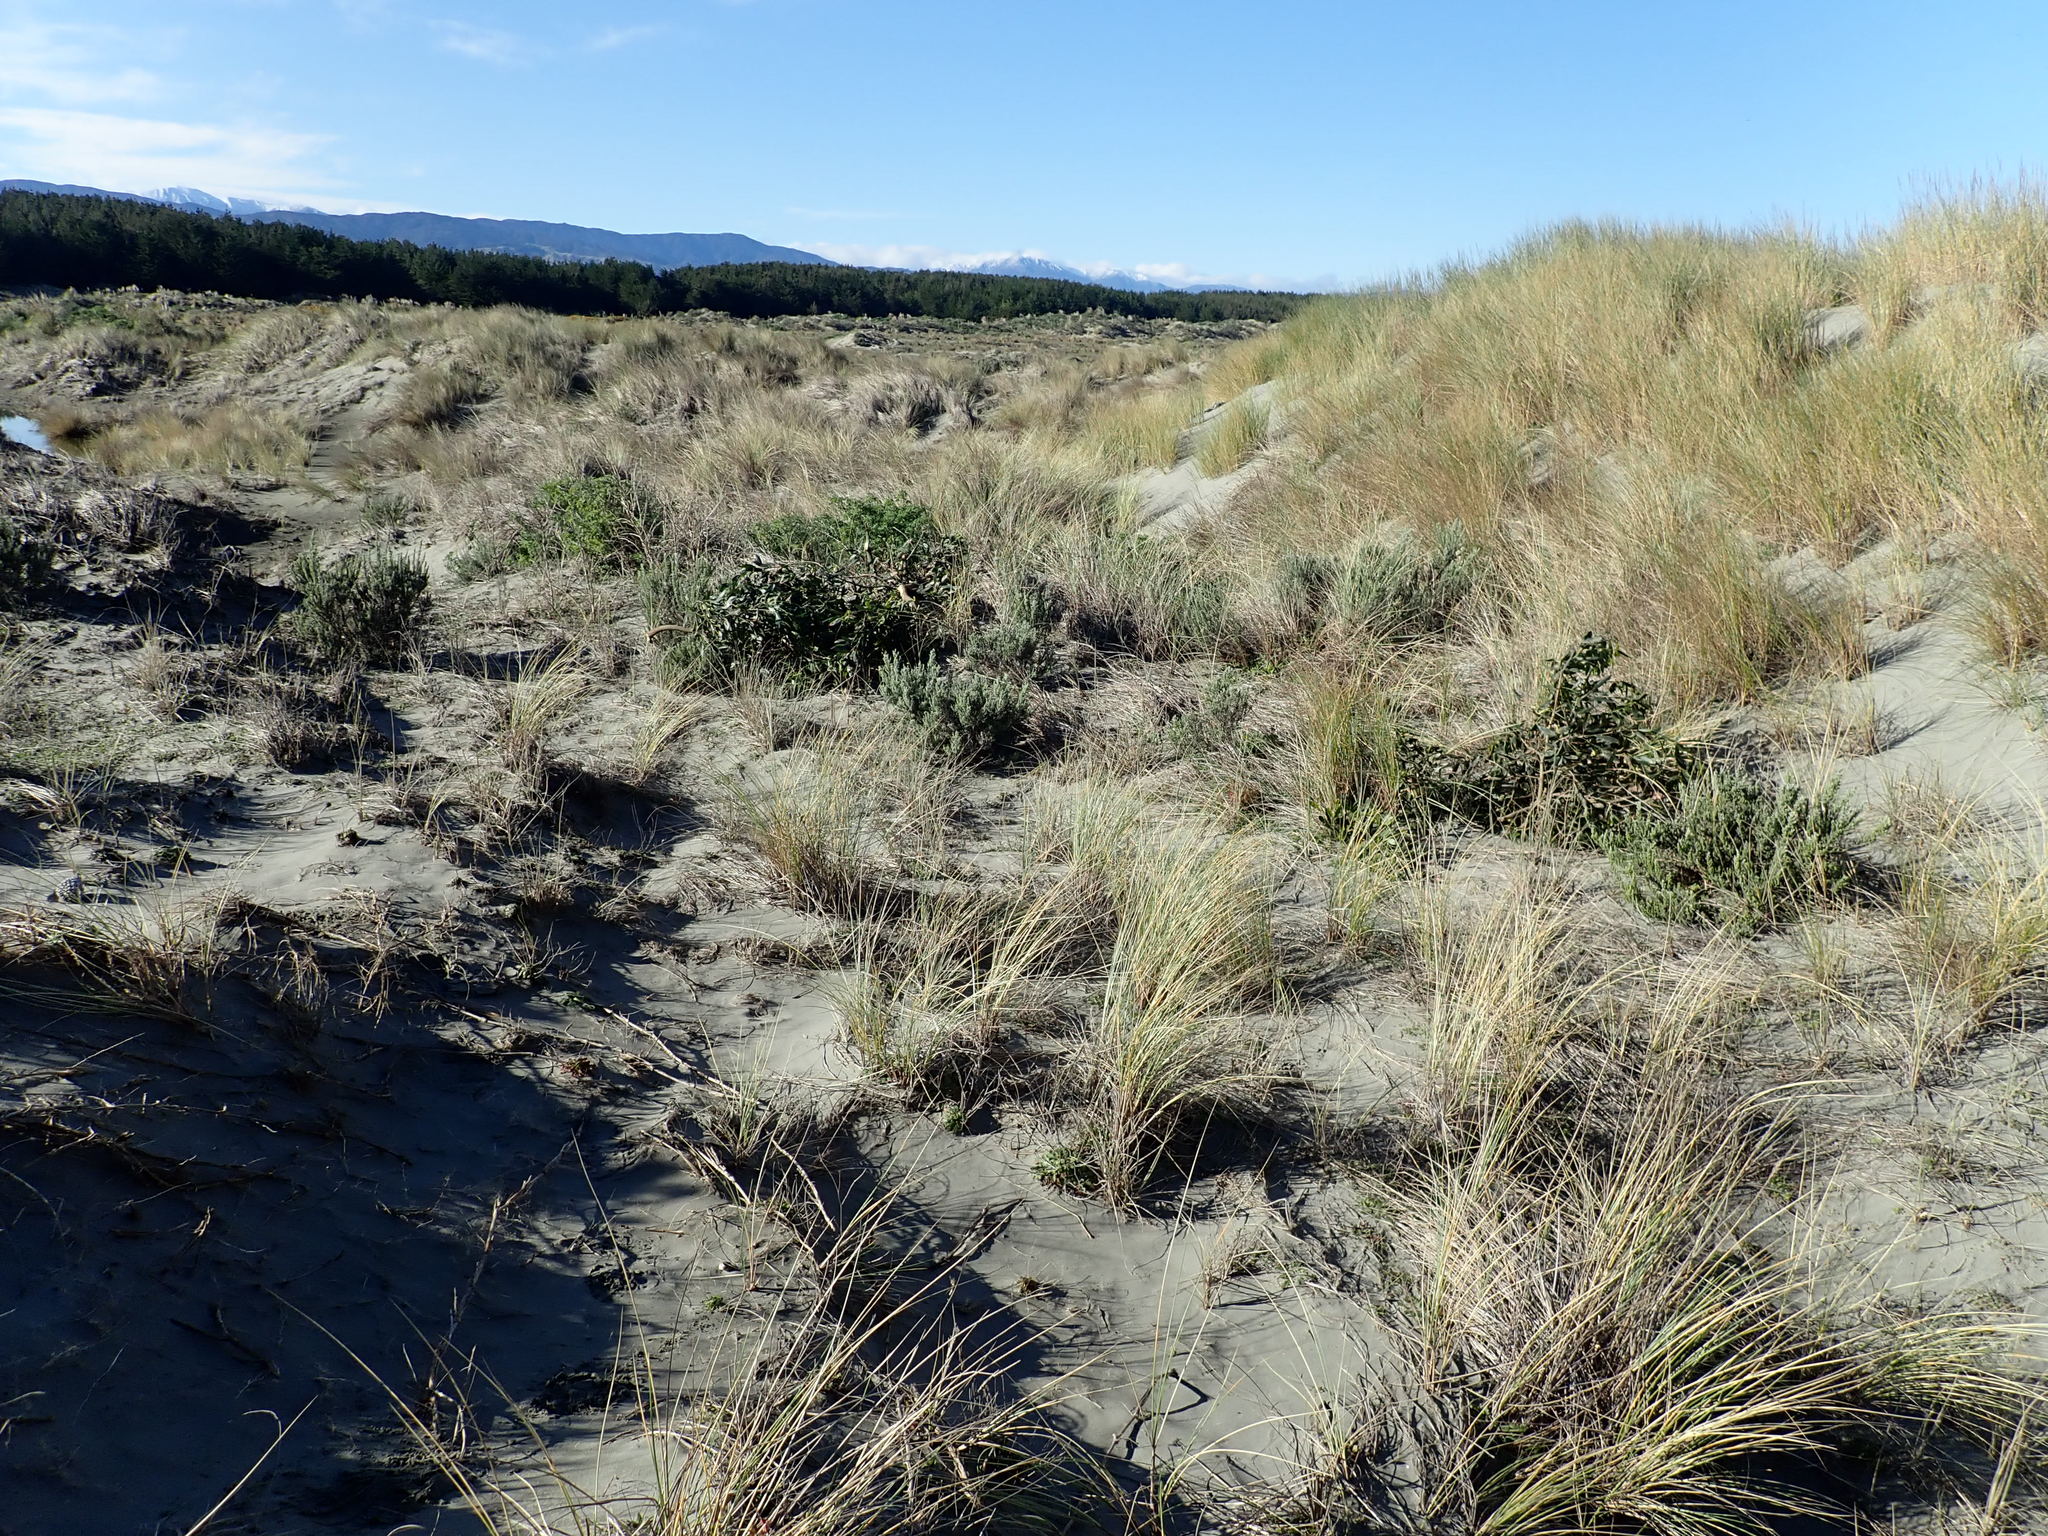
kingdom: Plantae
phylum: Tracheophyta
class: Magnoliopsida
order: Fabales
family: Fabaceae
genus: Acacia
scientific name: Acacia longifolia
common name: Sydney golden wattle
